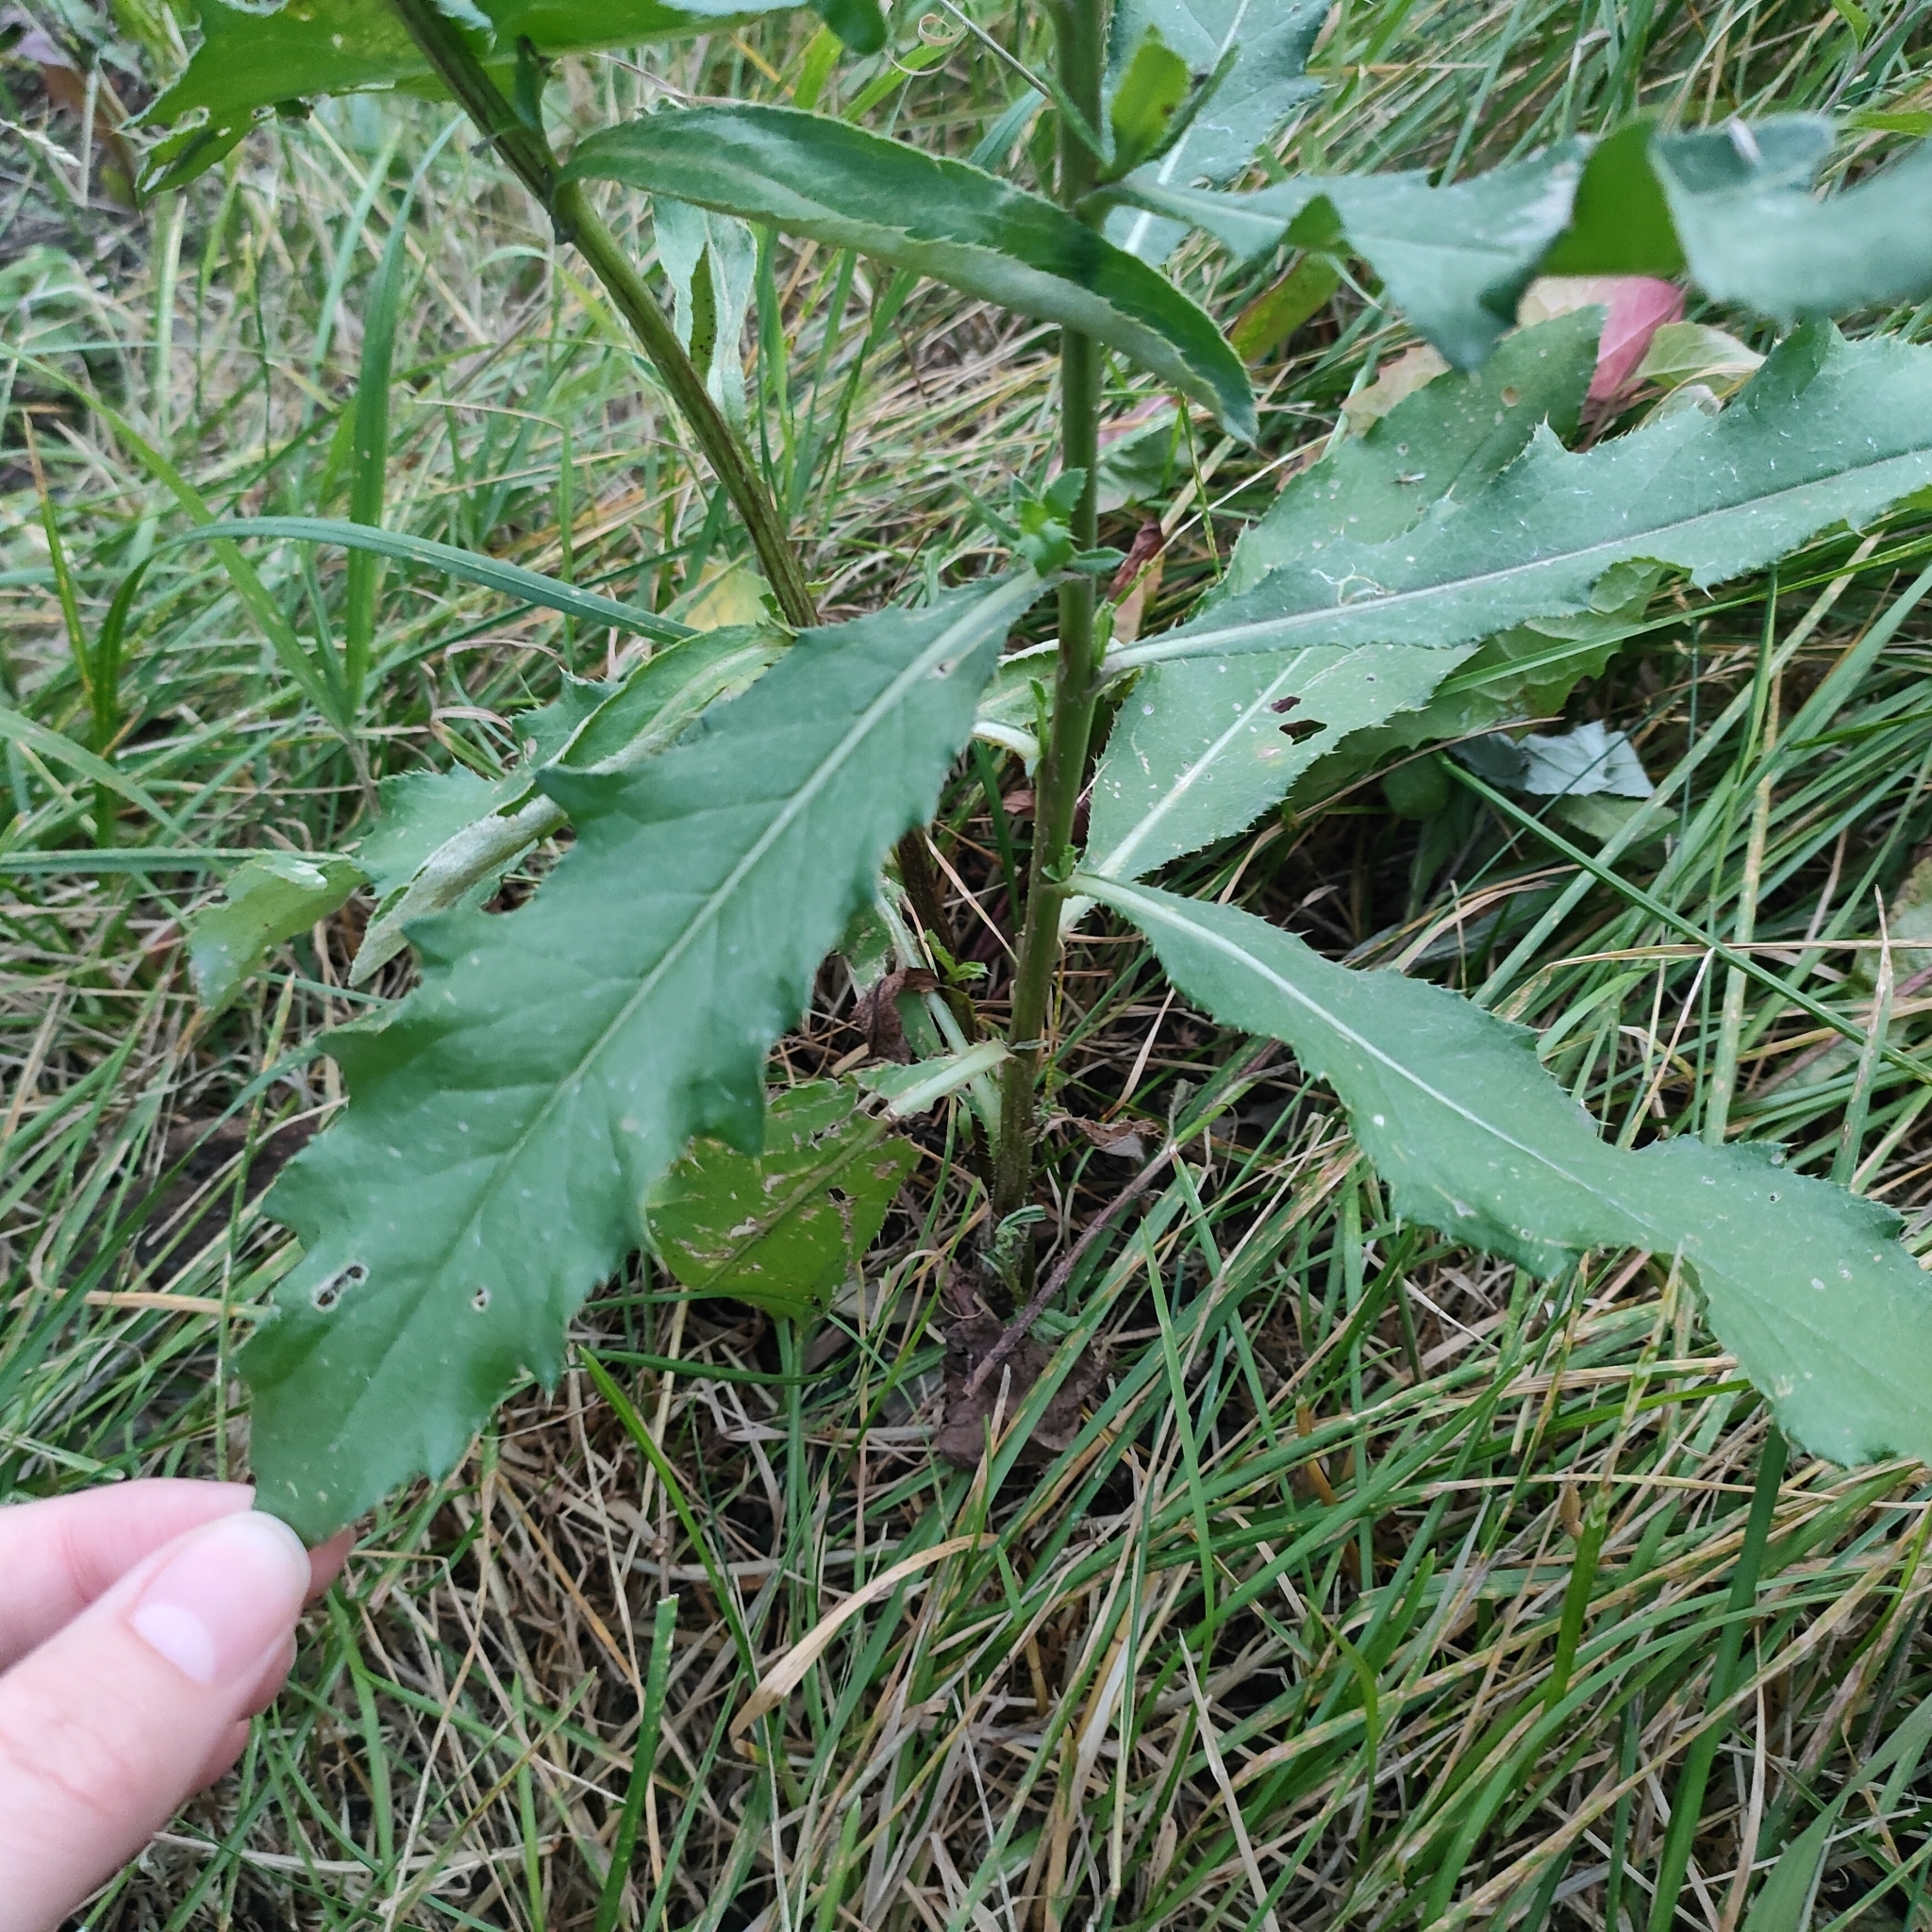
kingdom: Plantae
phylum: Tracheophyta
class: Magnoliopsida
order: Asterales
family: Asteraceae
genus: Cirsium
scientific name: Cirsium arvense
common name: Creeping thistle
